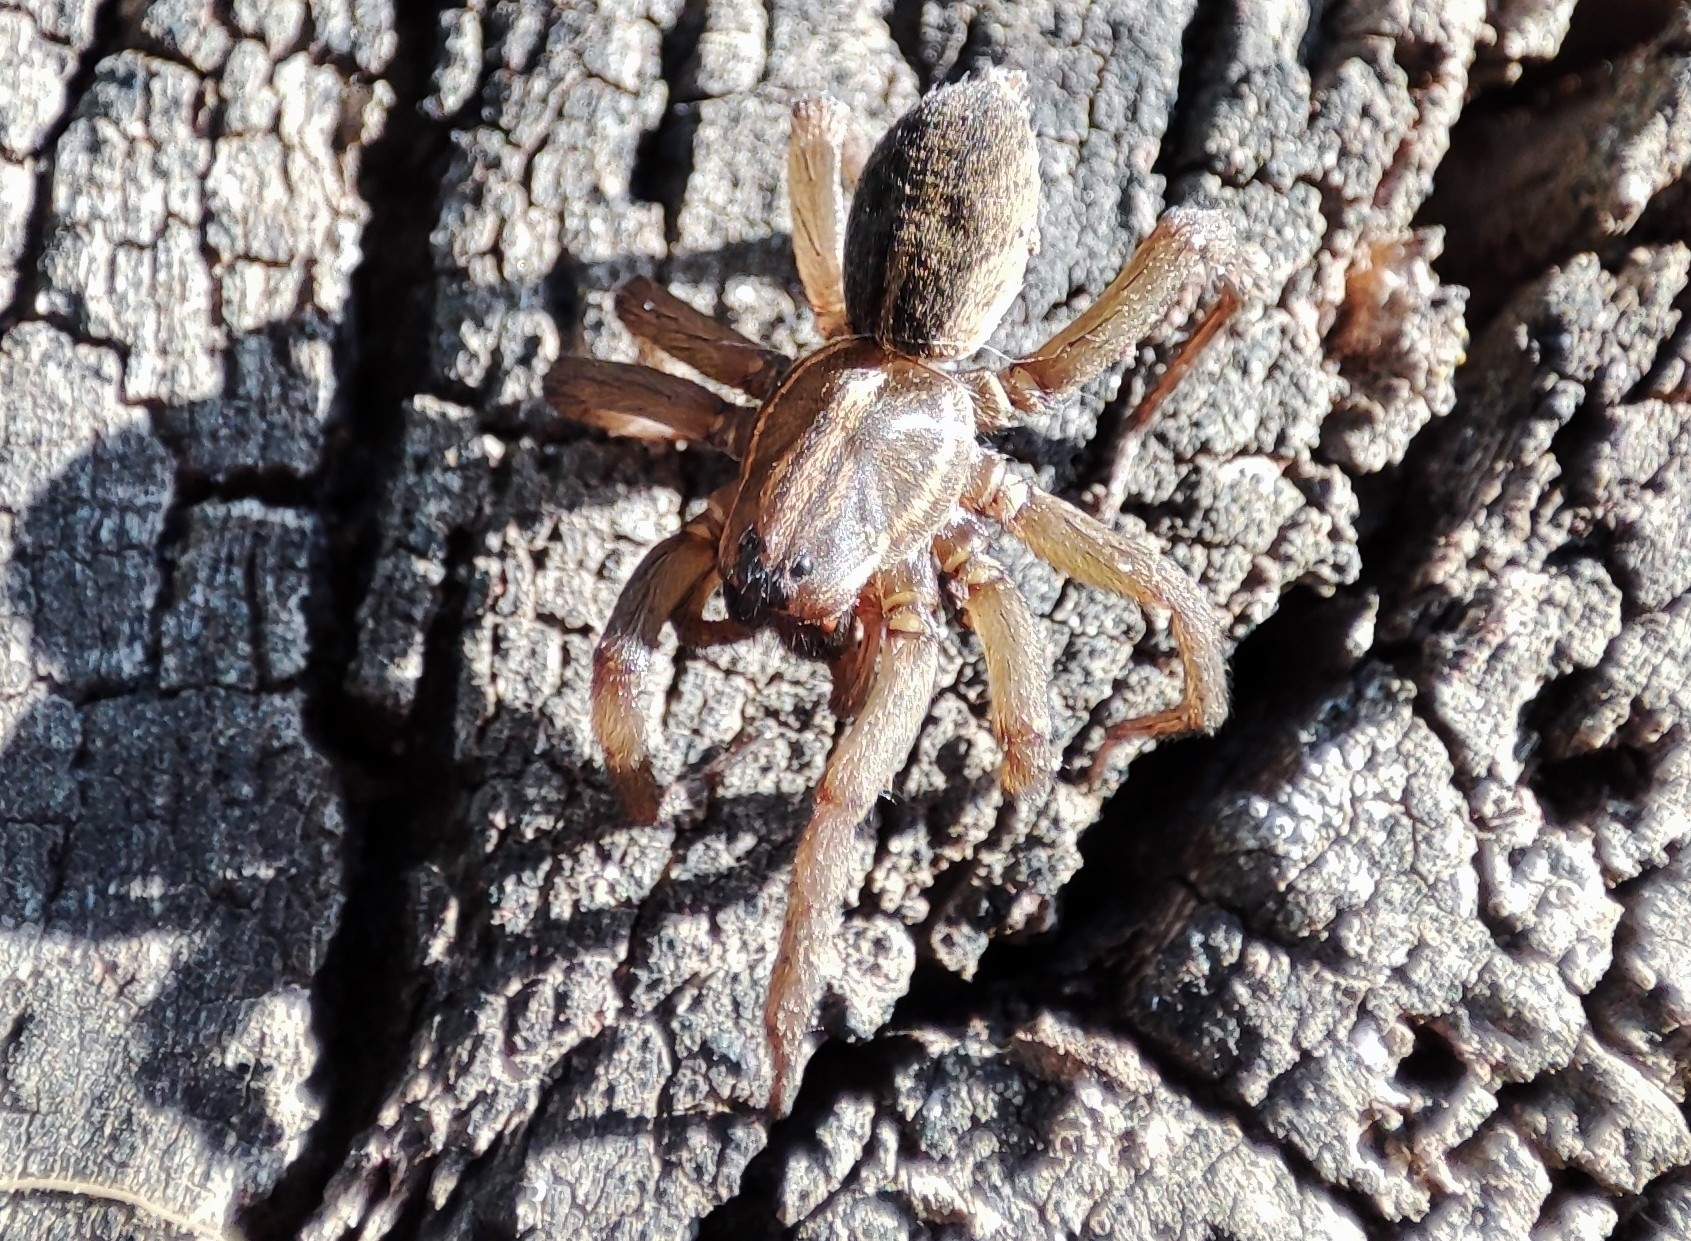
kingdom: Animalia
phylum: Arthropoda
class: Arachnida
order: Araneae
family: Lycosidae
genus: Trochosa
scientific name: Trochosa
